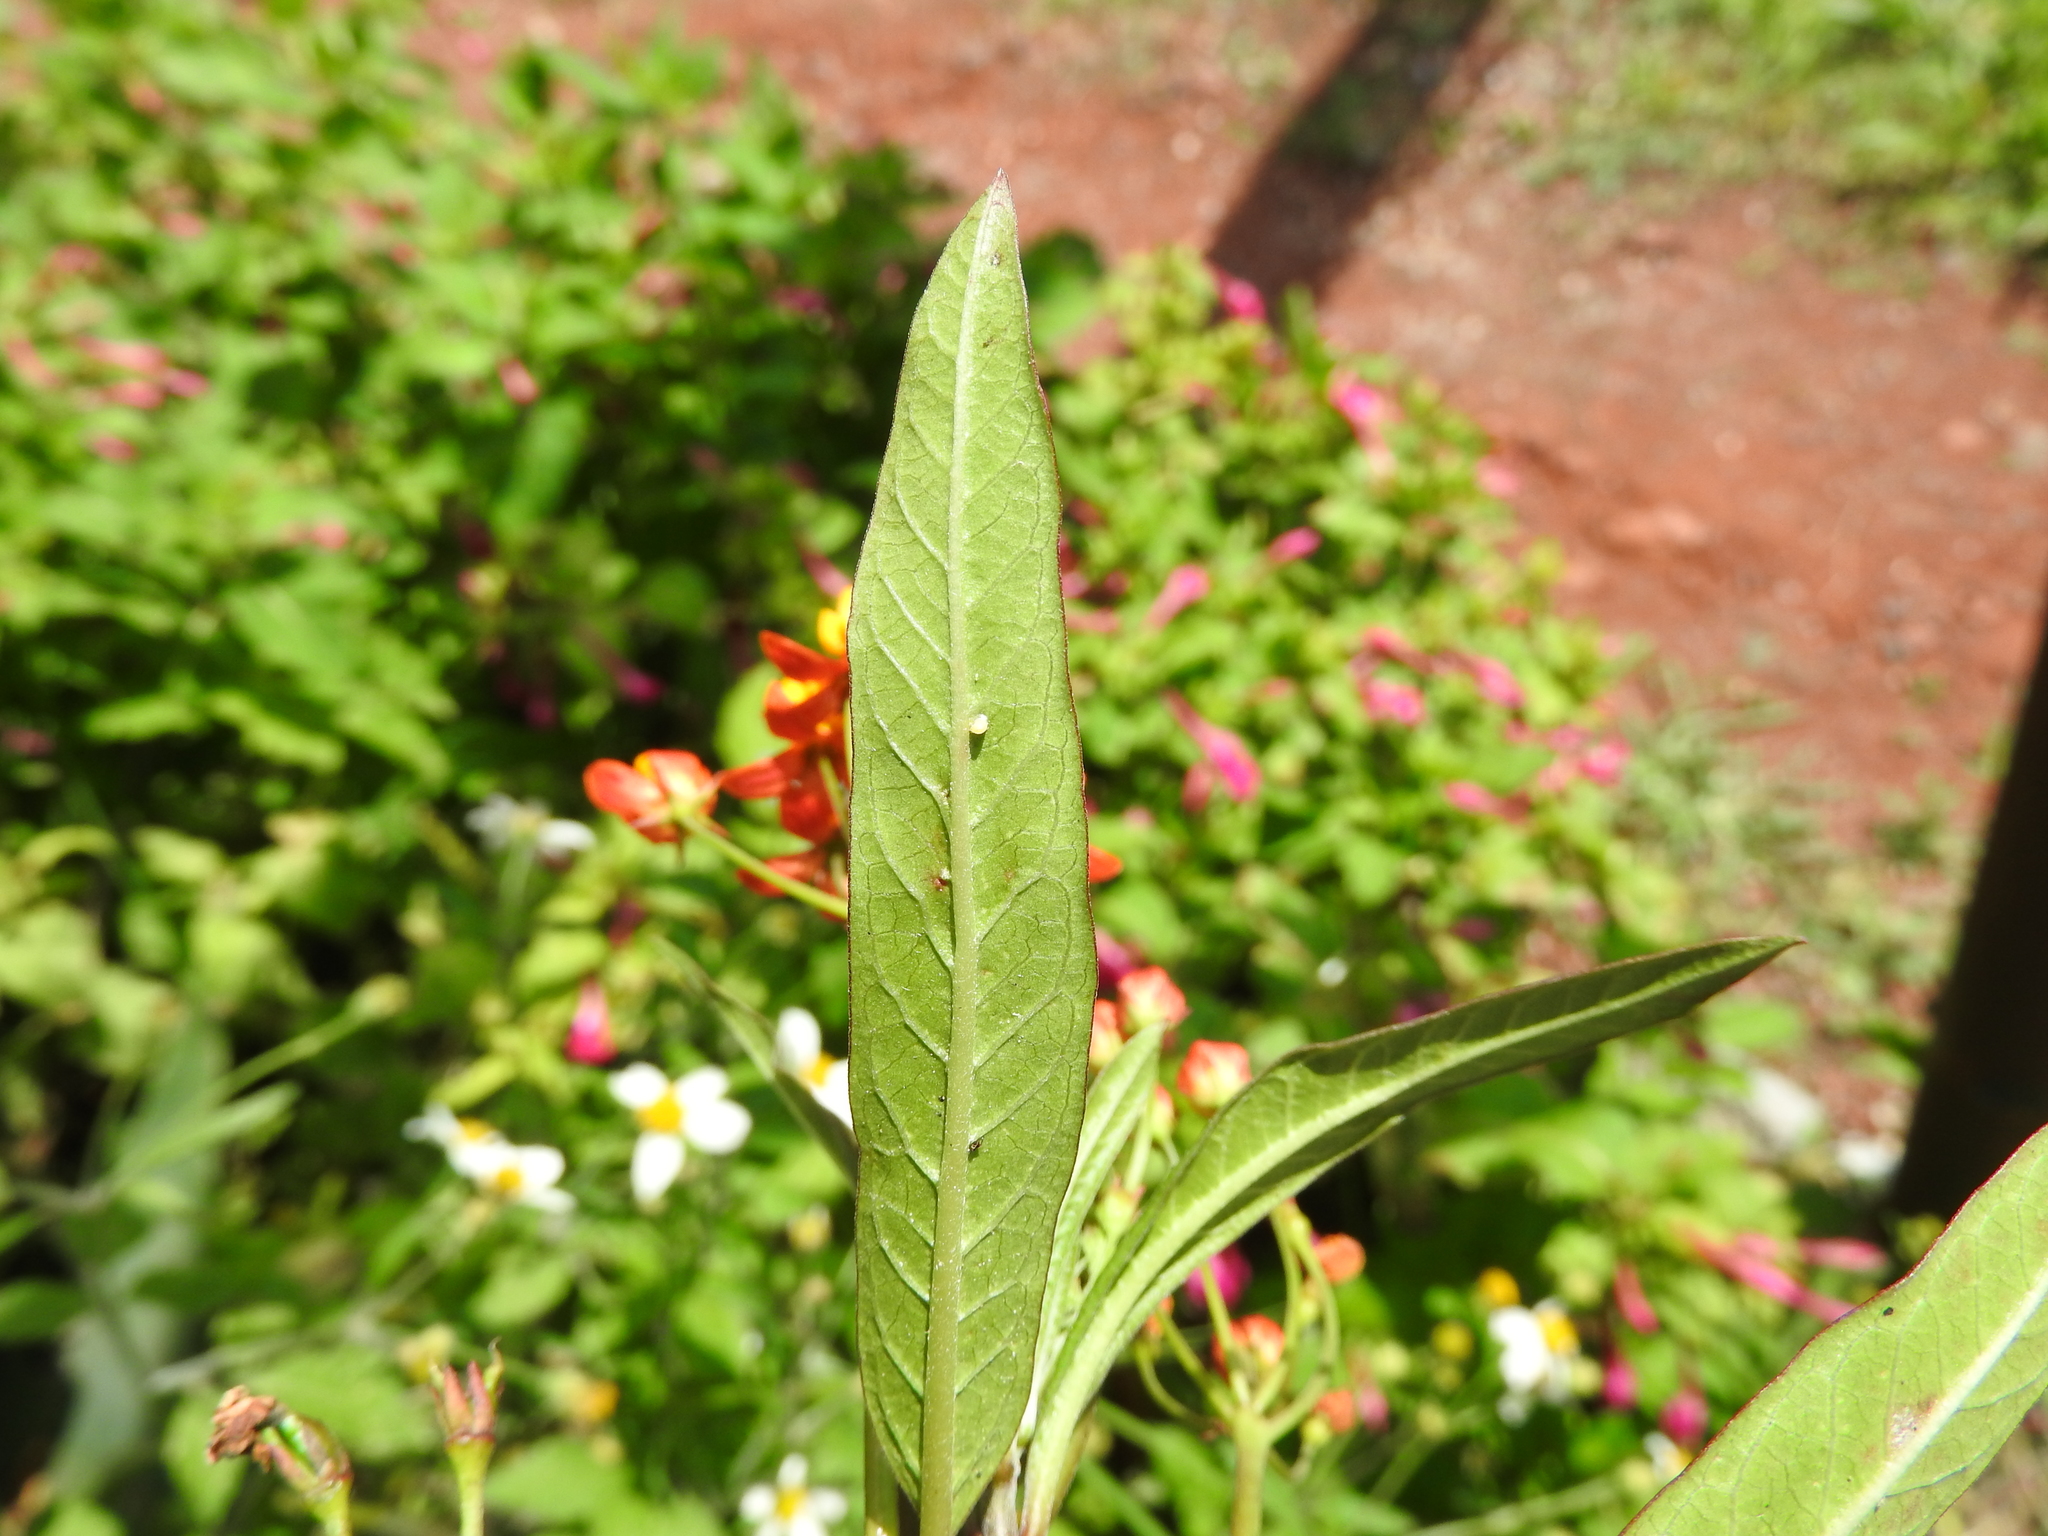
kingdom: Animalia
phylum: Arthropoda
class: Insecta
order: Lepidoptera
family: Nymphalidae
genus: Danaus
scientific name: Danaus plexippus
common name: Monarch
